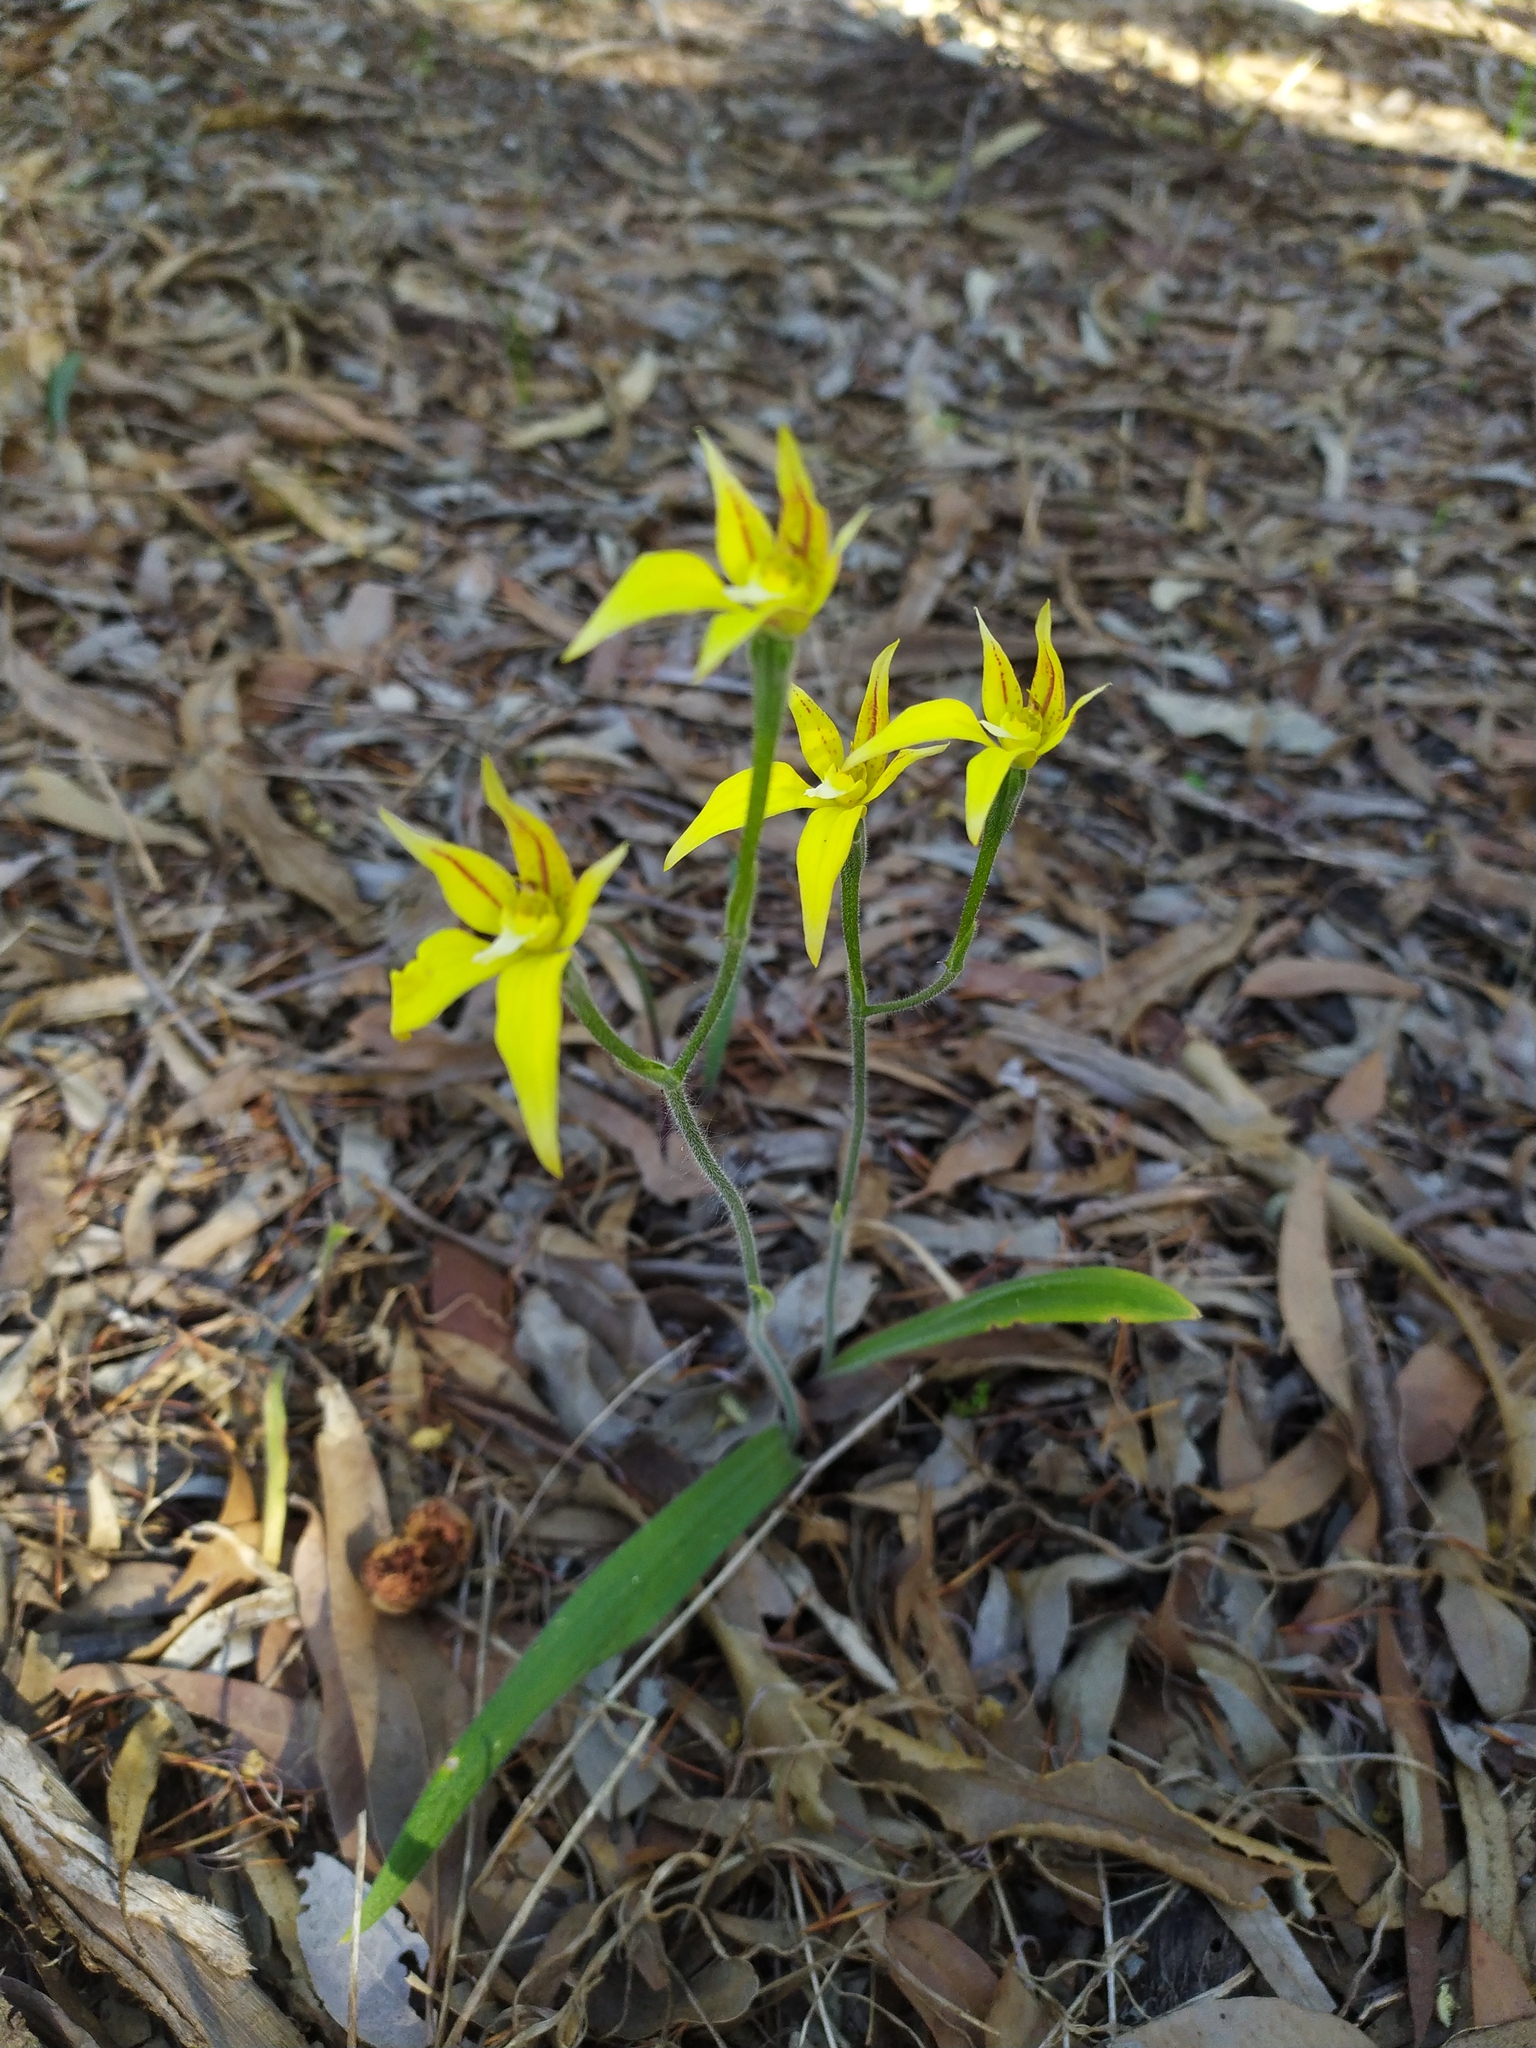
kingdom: Plantae
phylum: Tracheophyta
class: Liliopsida
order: Asparagales
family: Orchidaceae
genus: Caladenia
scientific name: Caladenia flava
